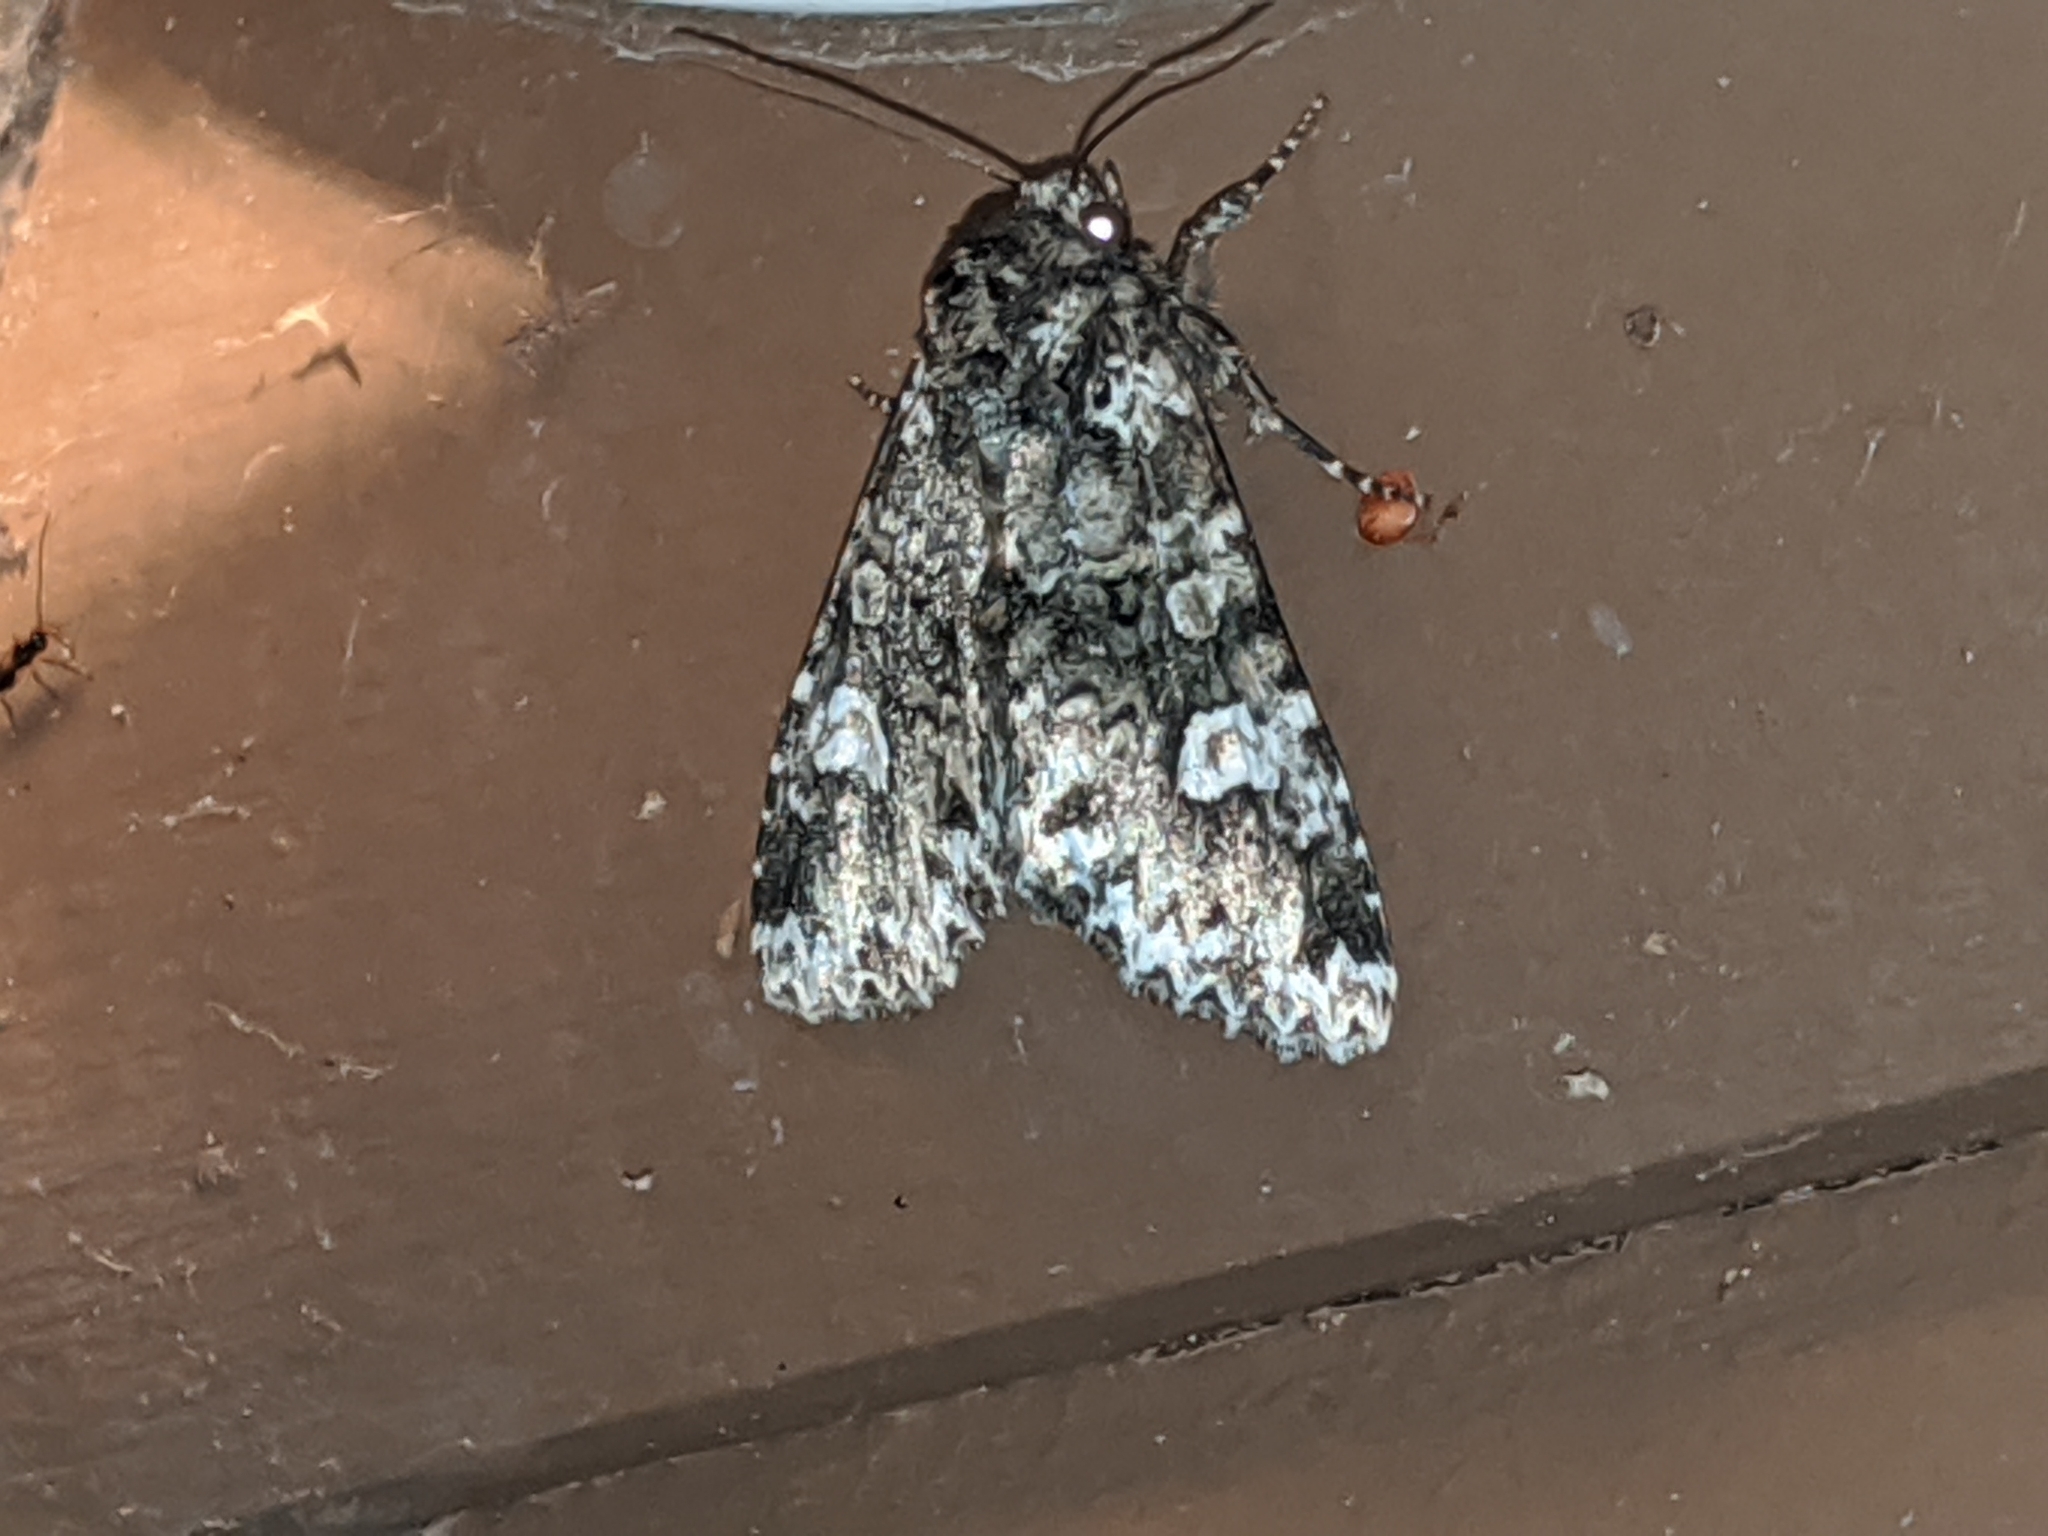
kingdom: Animalia
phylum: Arthropoda
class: Insecta
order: Lepidoptera
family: Noctuidae
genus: Melanchra
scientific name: Melanchra adjuncta
